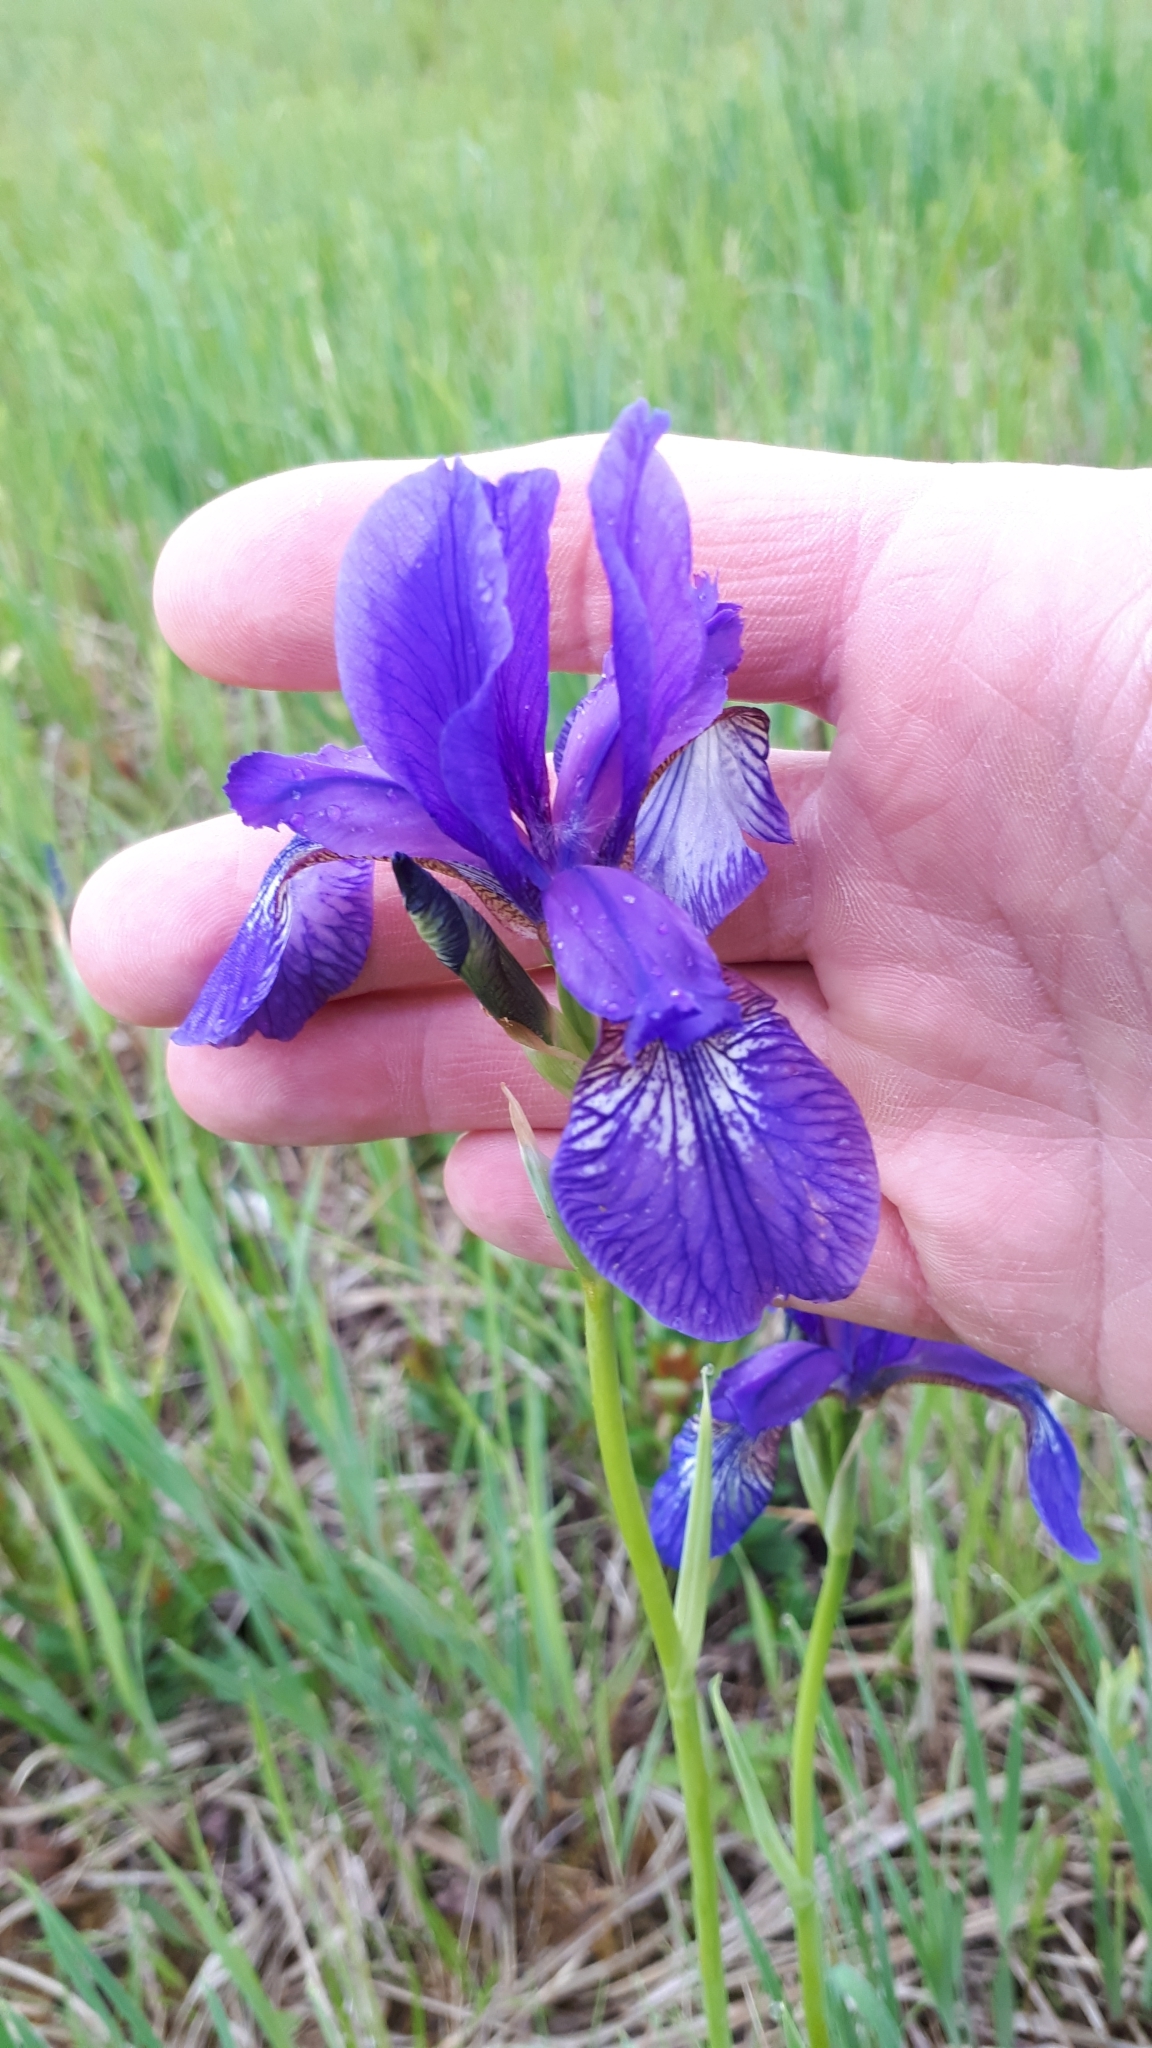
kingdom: Plantae
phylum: Tracheophyta
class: Liliopsida
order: Asparagales
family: Iridaceae
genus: Iris
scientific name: Iris sibirica
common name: Siberian iris
